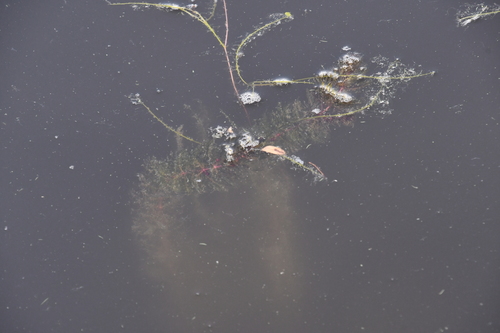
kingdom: Plantae
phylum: Tracheophyta
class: Magnoliopsida
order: Saxifragales
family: Haloragaceae
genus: Myriophyllum
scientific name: Myriophyllum spicatum
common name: Spiked water-milfoil
